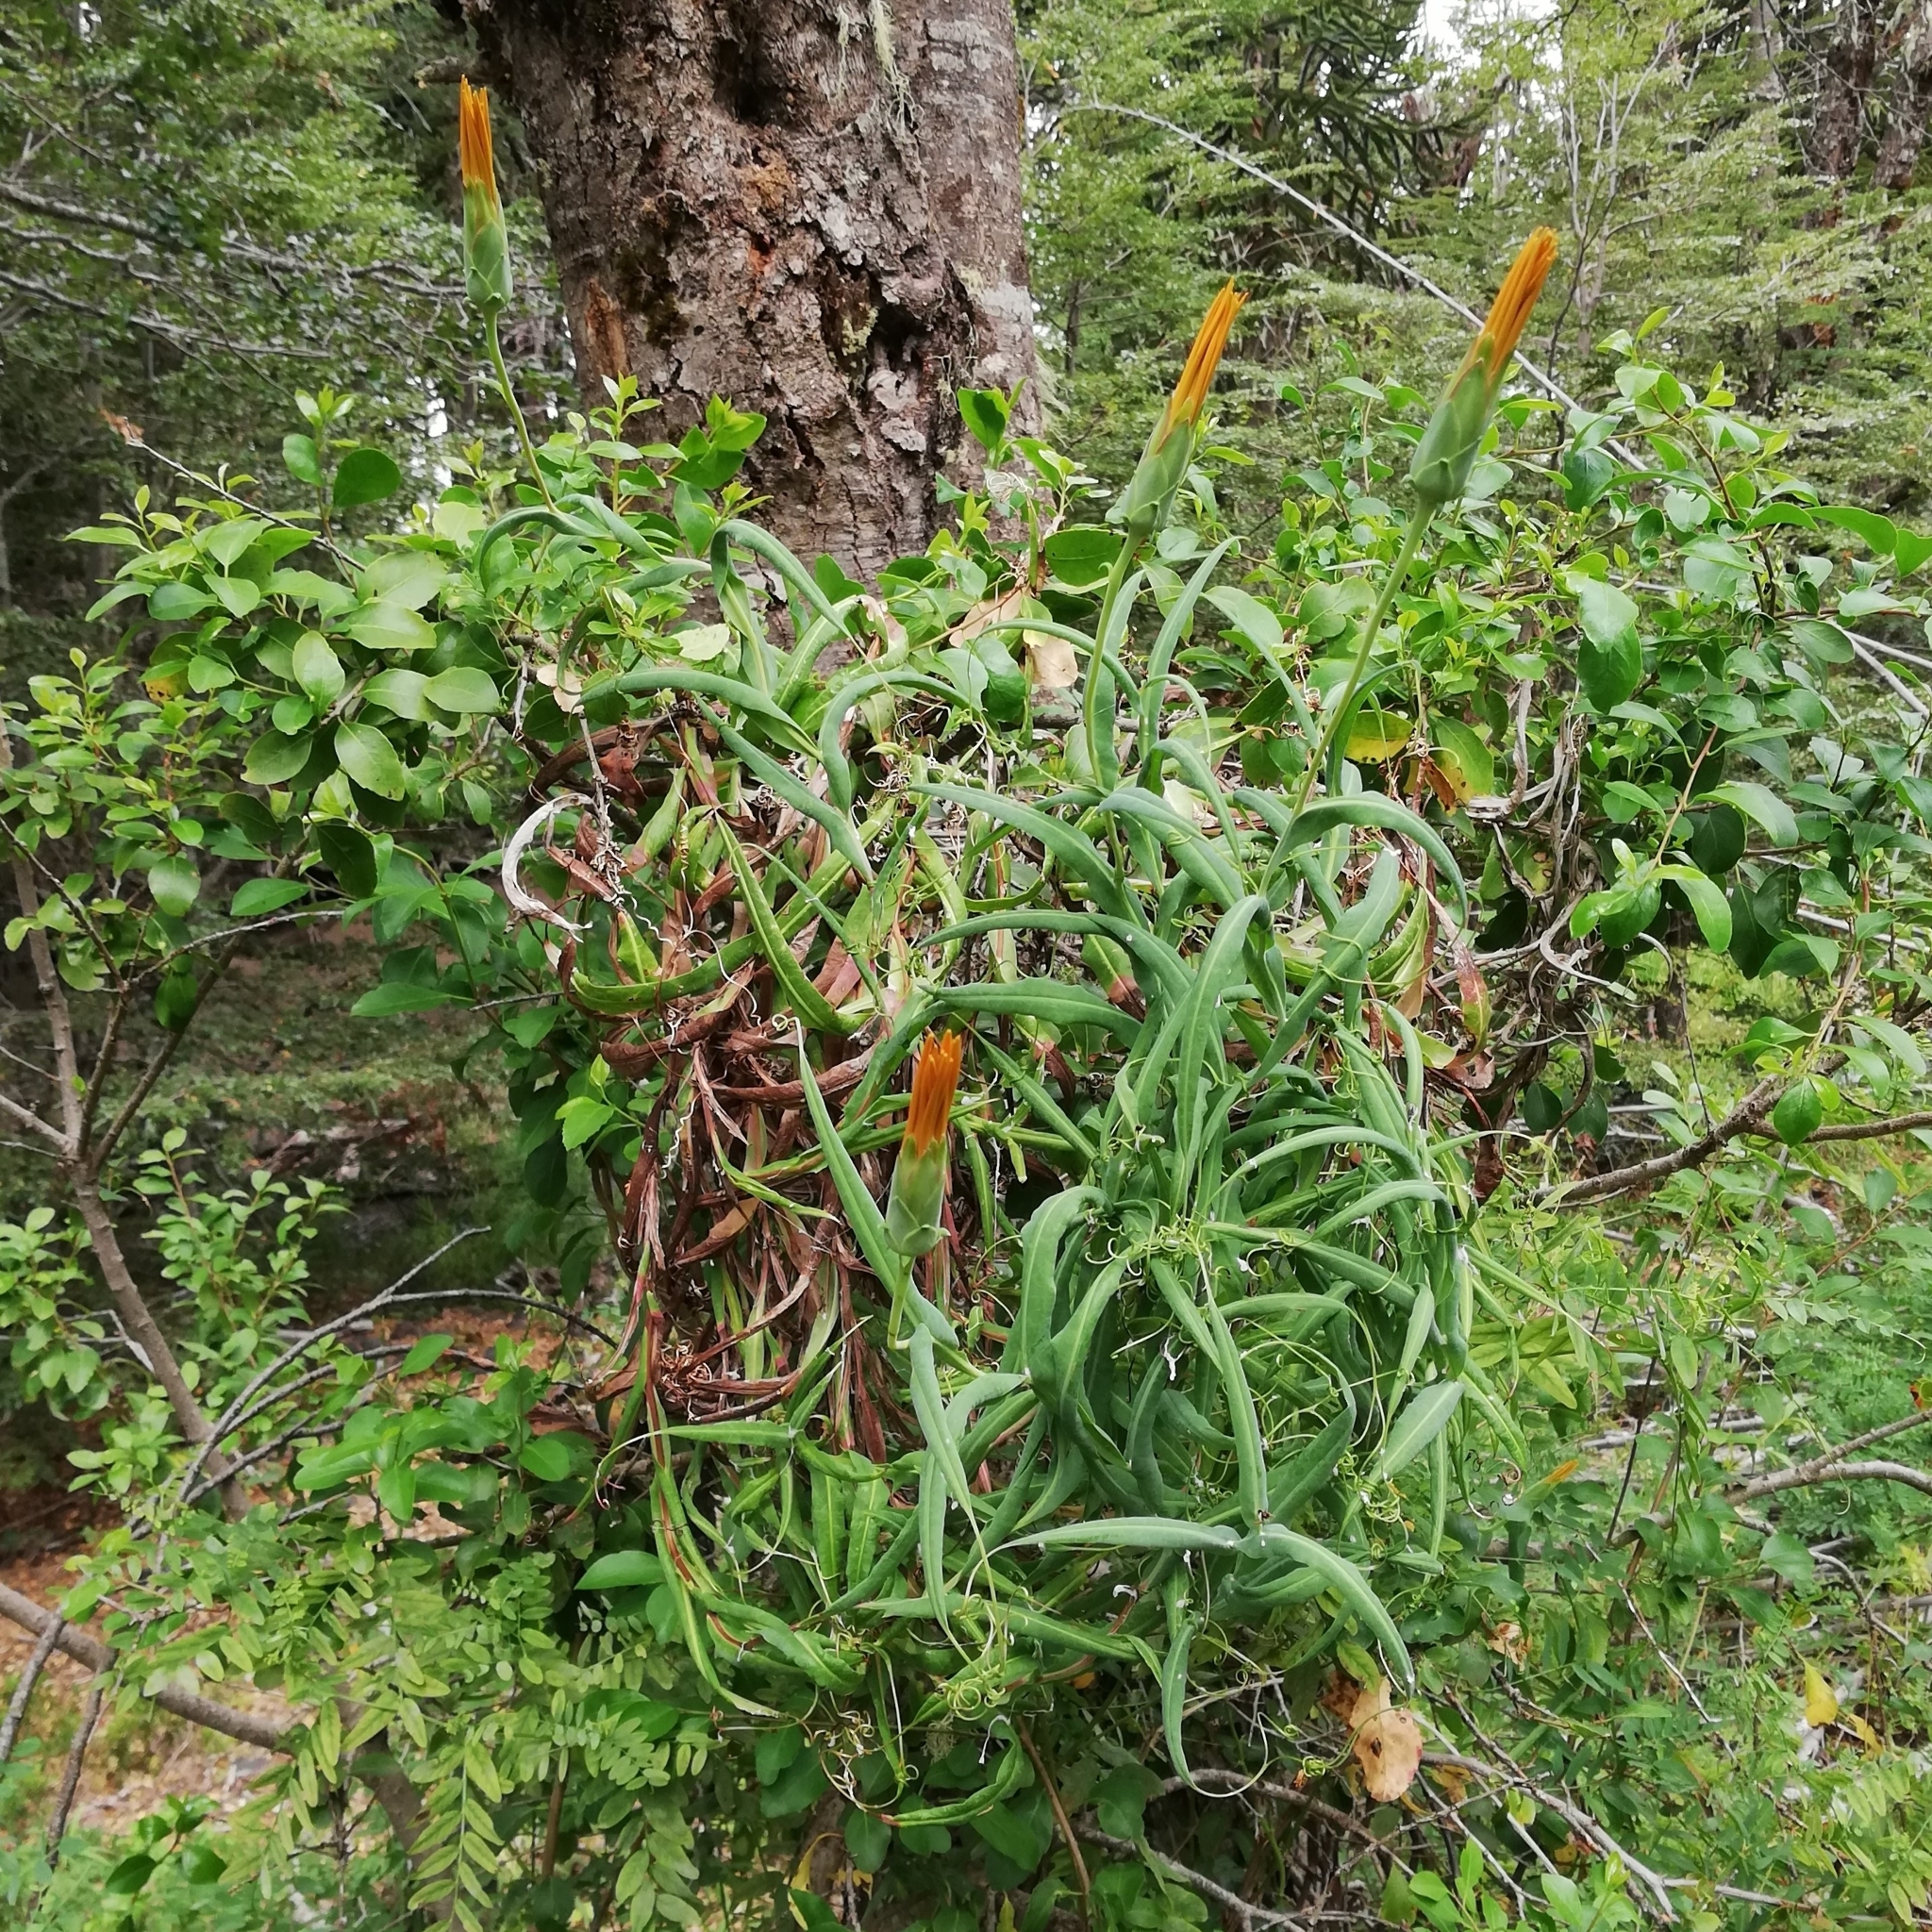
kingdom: Plantae
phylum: Tracheophyta
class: Magnoliopsida
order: Asterales
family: Asteraceae
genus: Mutisia
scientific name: Mutisia decurrens
